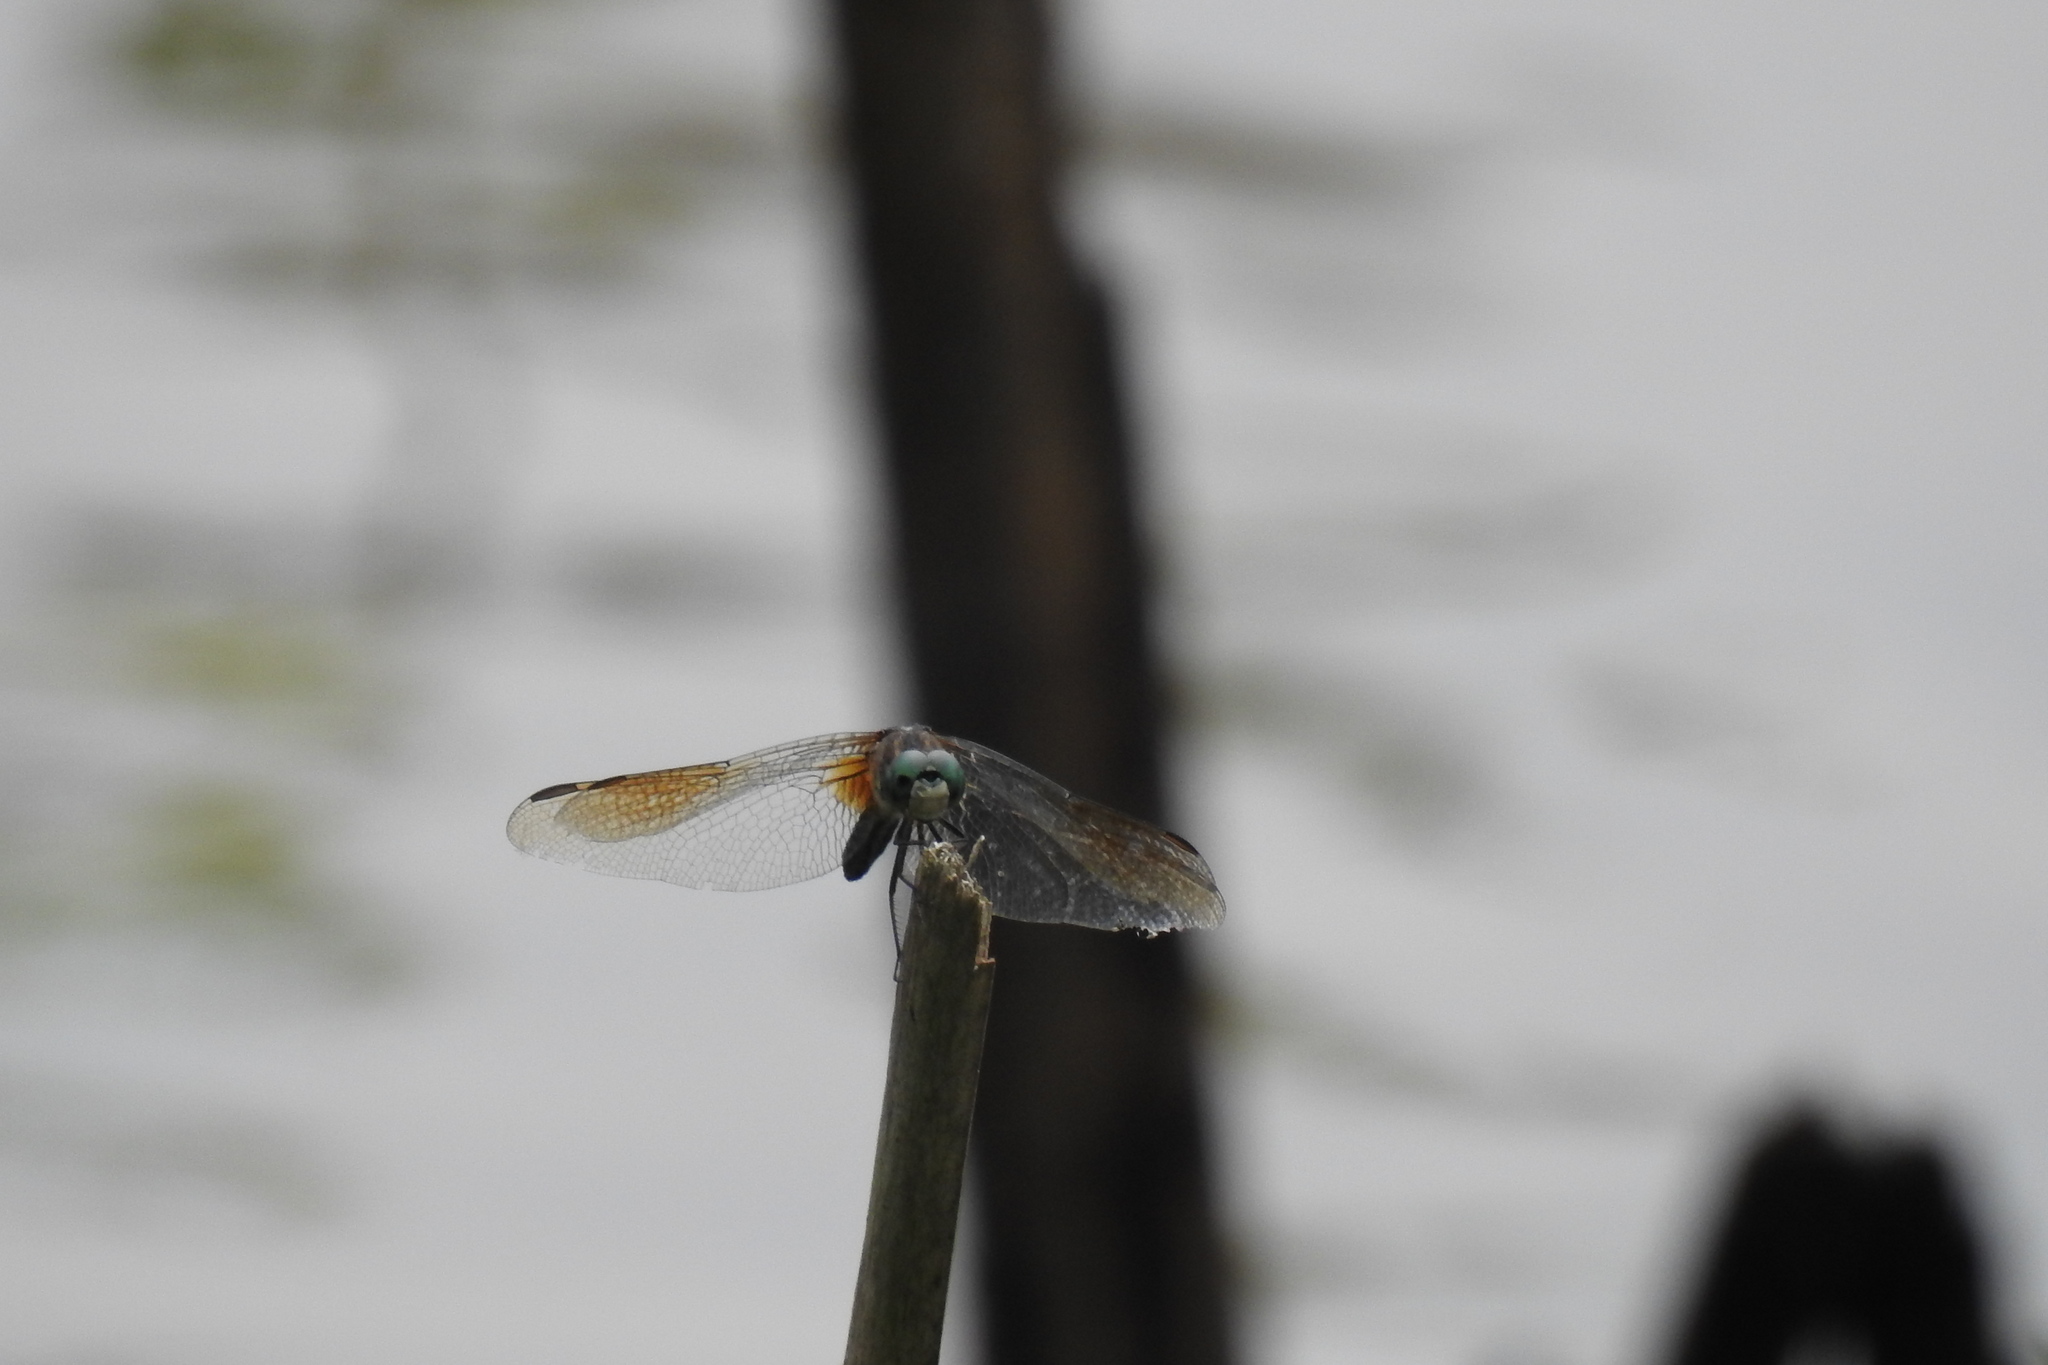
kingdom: Animalia
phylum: Arthropoda
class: Insecta
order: Odonata
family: Libellulidae
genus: Pachydiplax
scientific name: Pachydiplax longipennis
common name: Blue dasher
